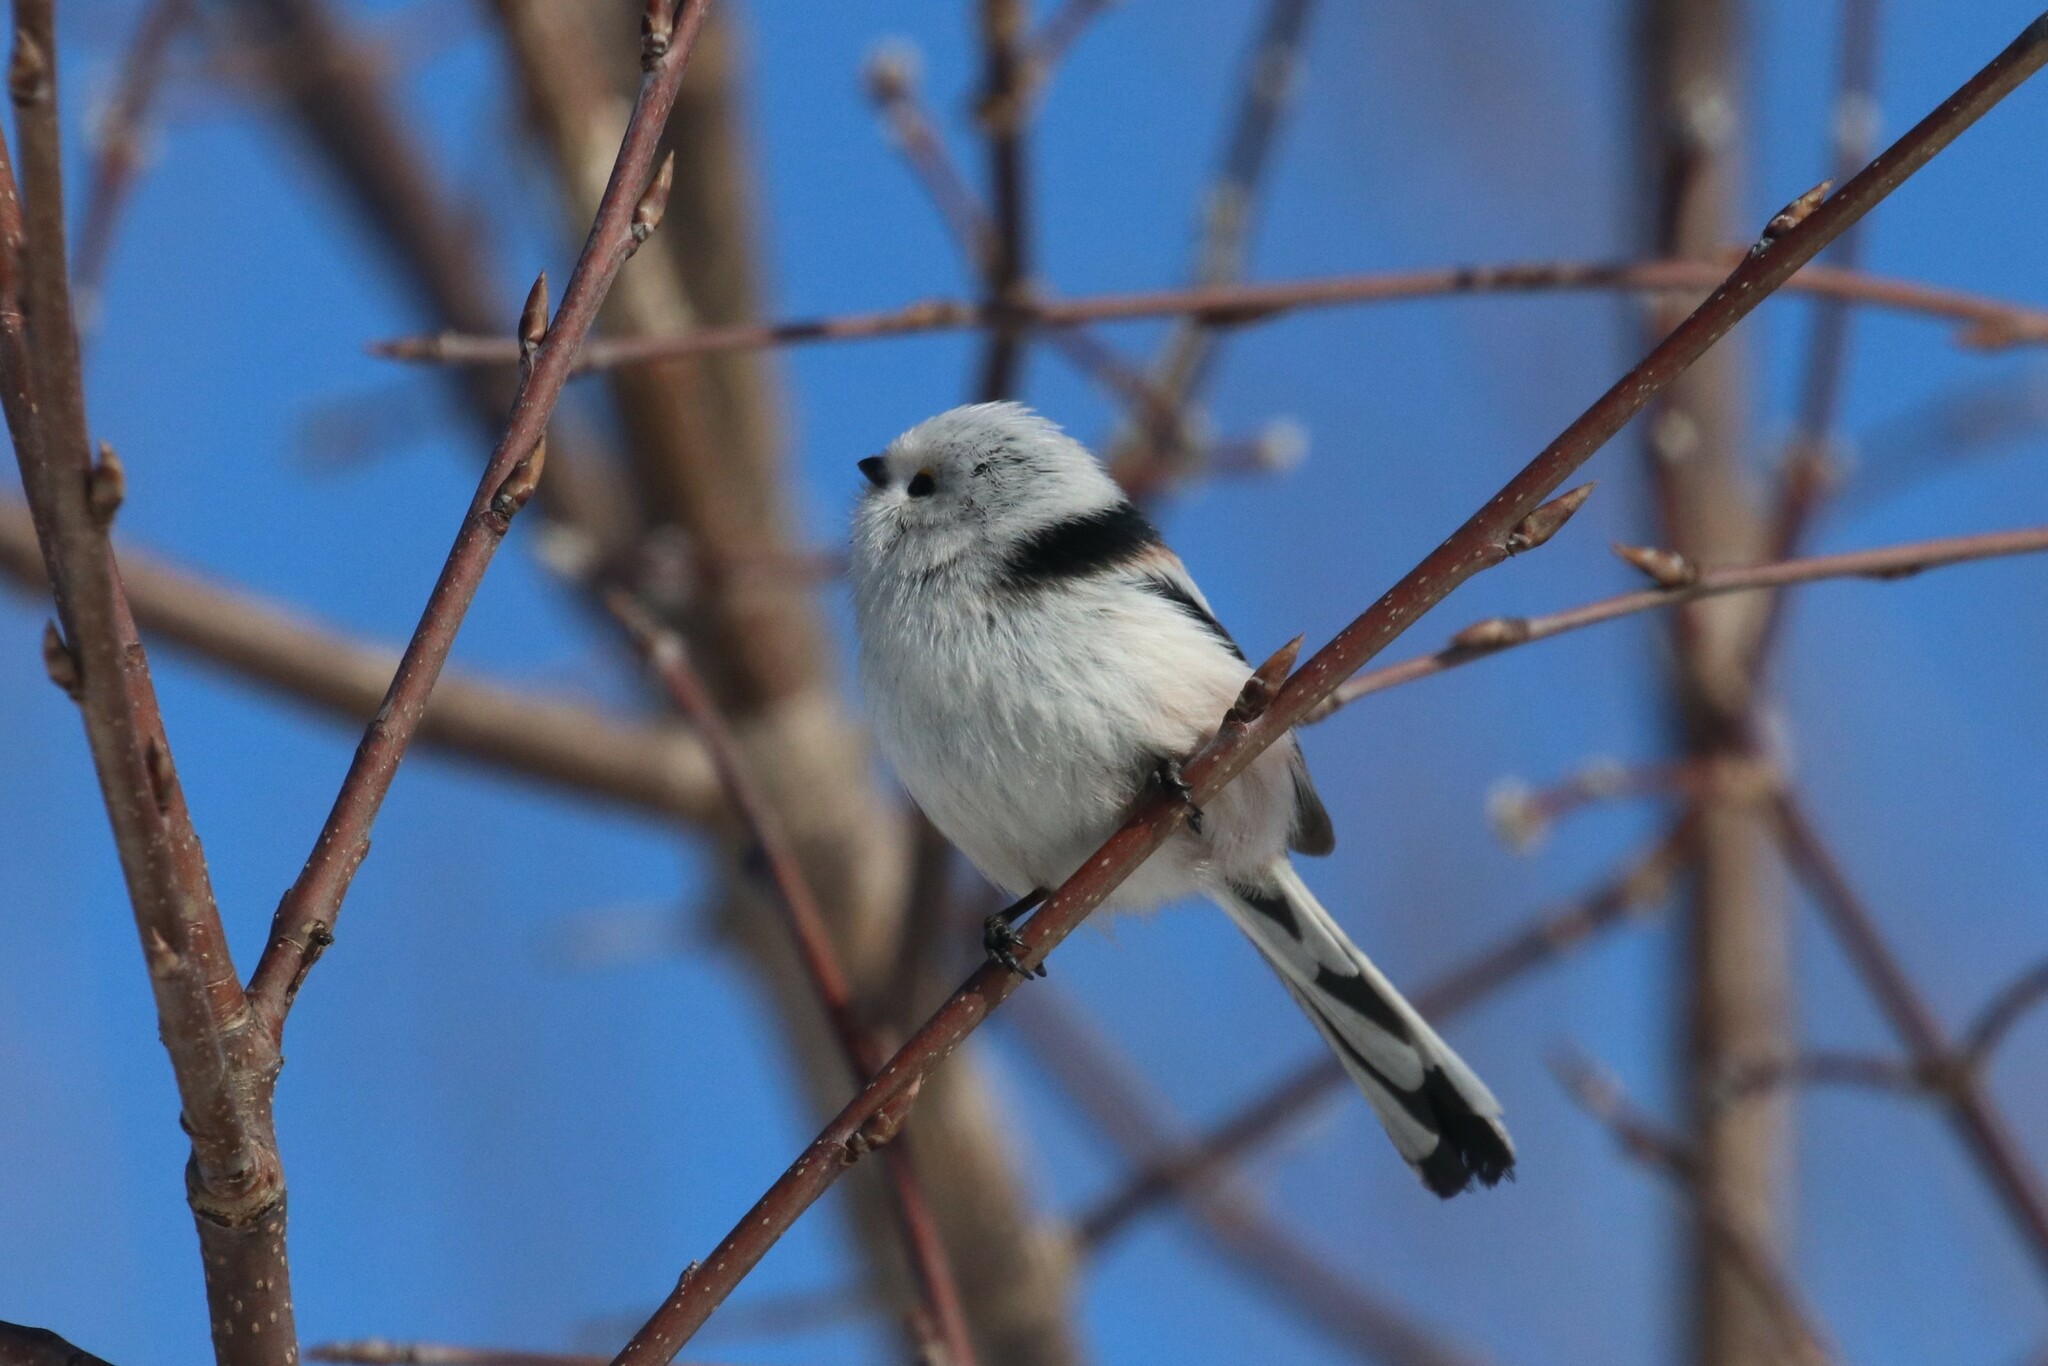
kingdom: Animalia
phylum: Chordata
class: Aves
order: Passeriformes
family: Aegithalidae
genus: Aegithalos
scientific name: Aegithalos caudatus
